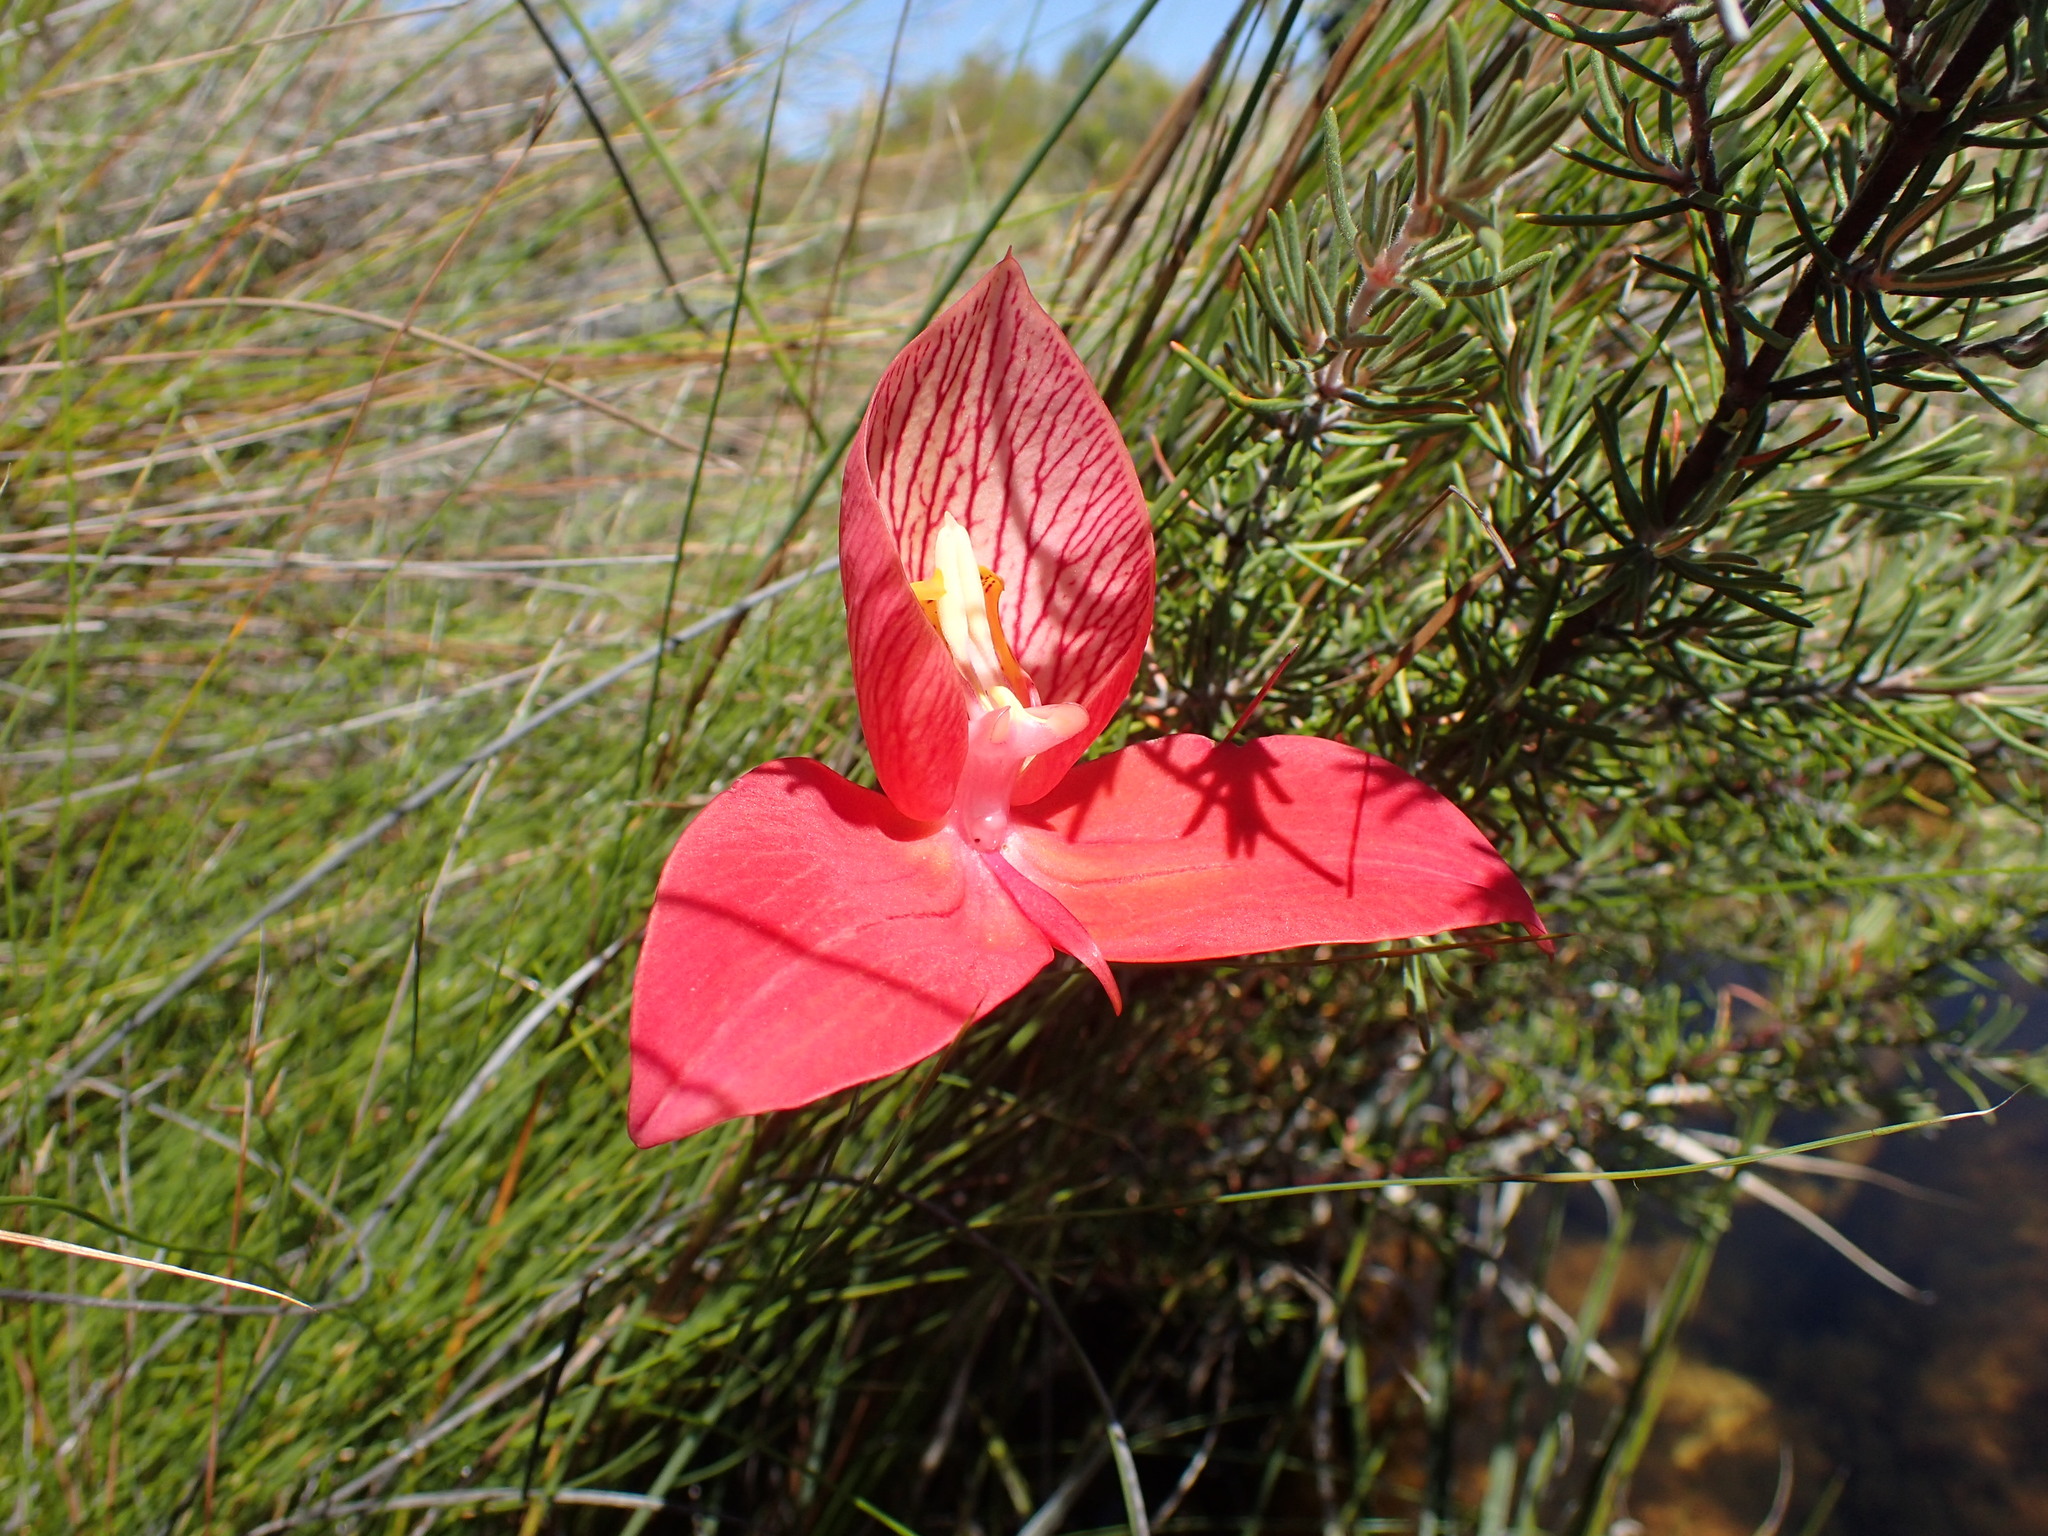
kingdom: Plantae
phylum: Tracheophyta
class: Liliopsida
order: Asparagales
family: Orchidaceae
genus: Disa
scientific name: Disa uniflora
